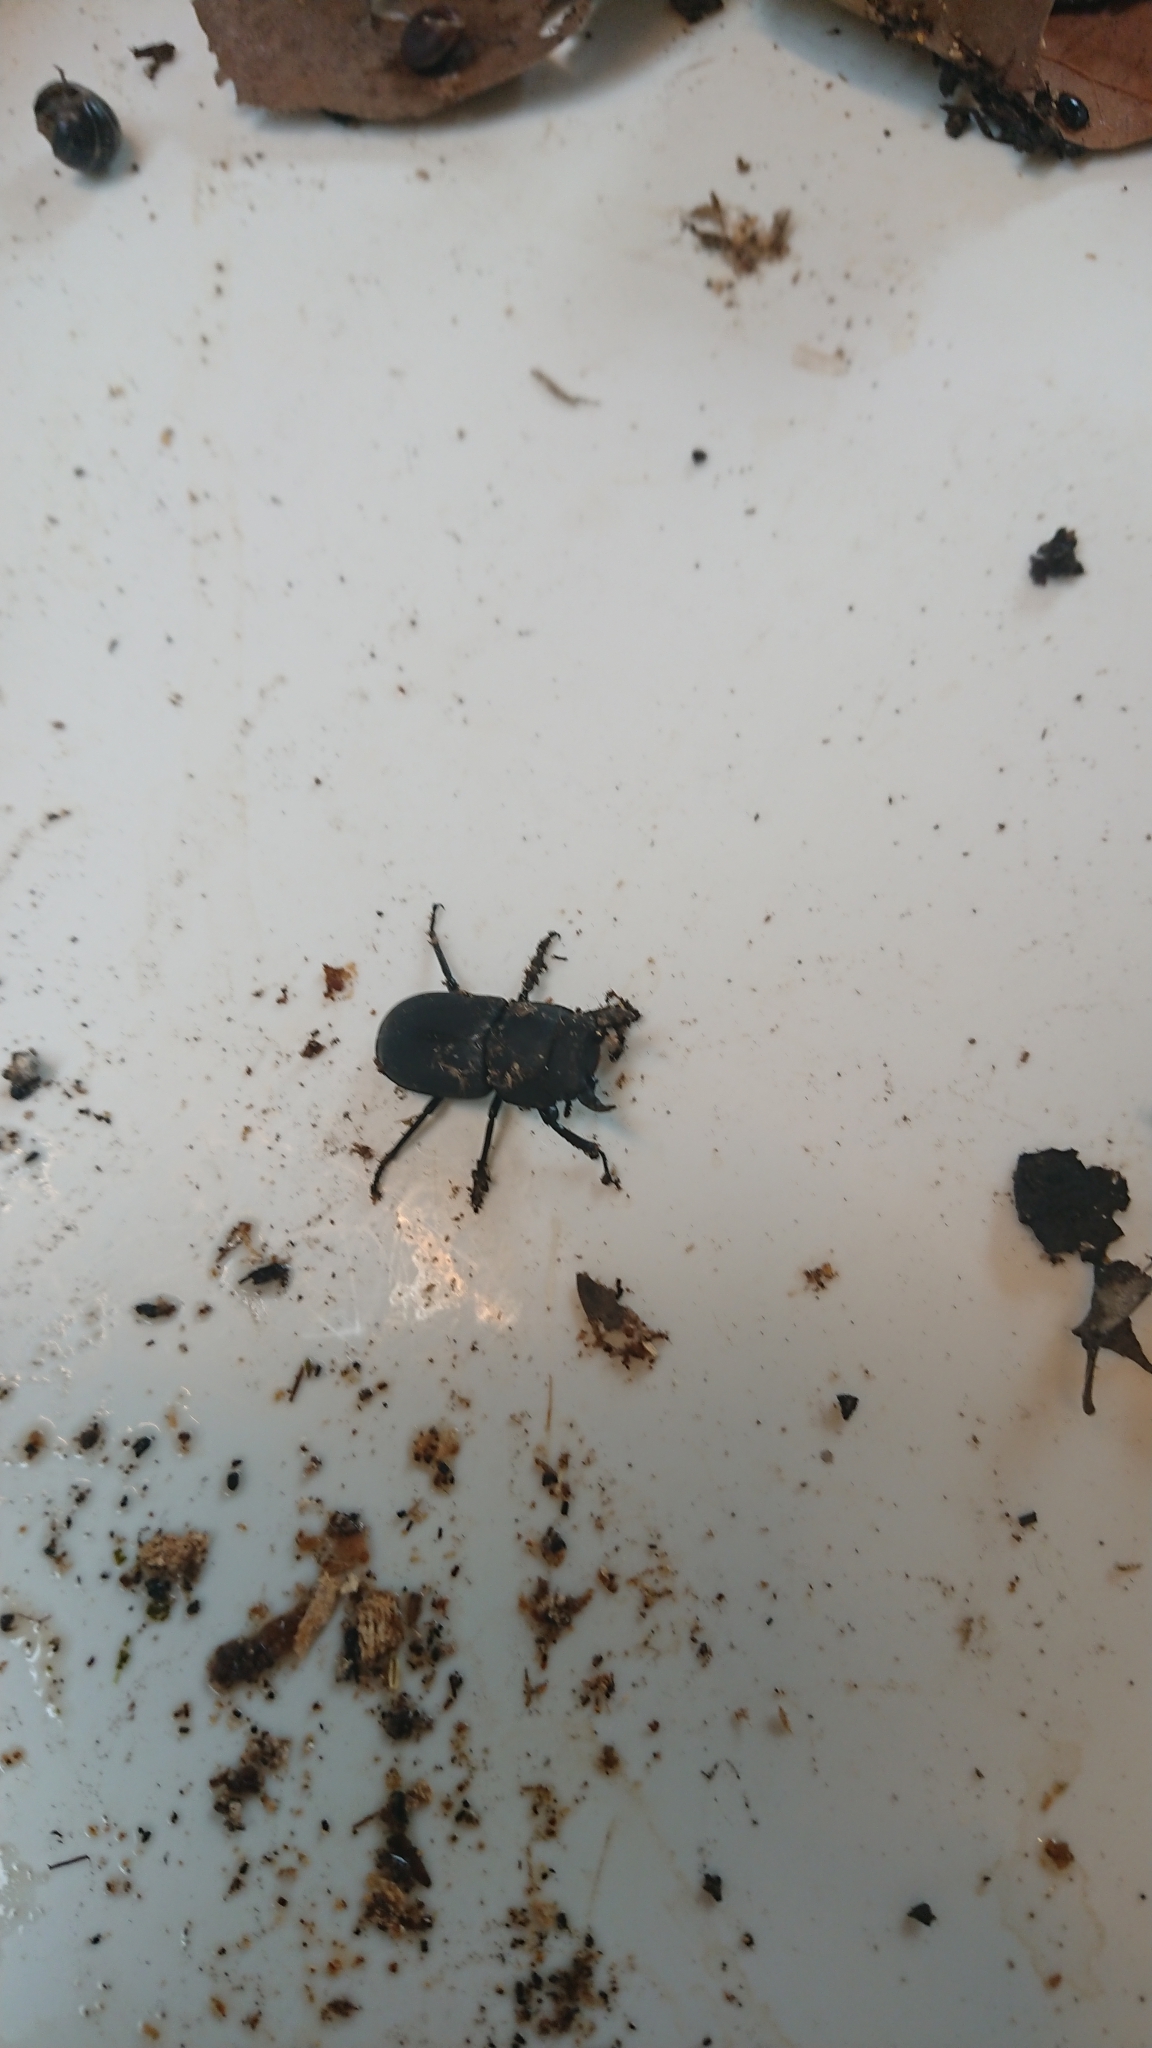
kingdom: Animalia
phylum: Arthropoda
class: Insecta
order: Coleoptera
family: Lucanidae
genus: Dorcus
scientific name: Dorcus parallelipipedus
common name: Lesser stag beetle
